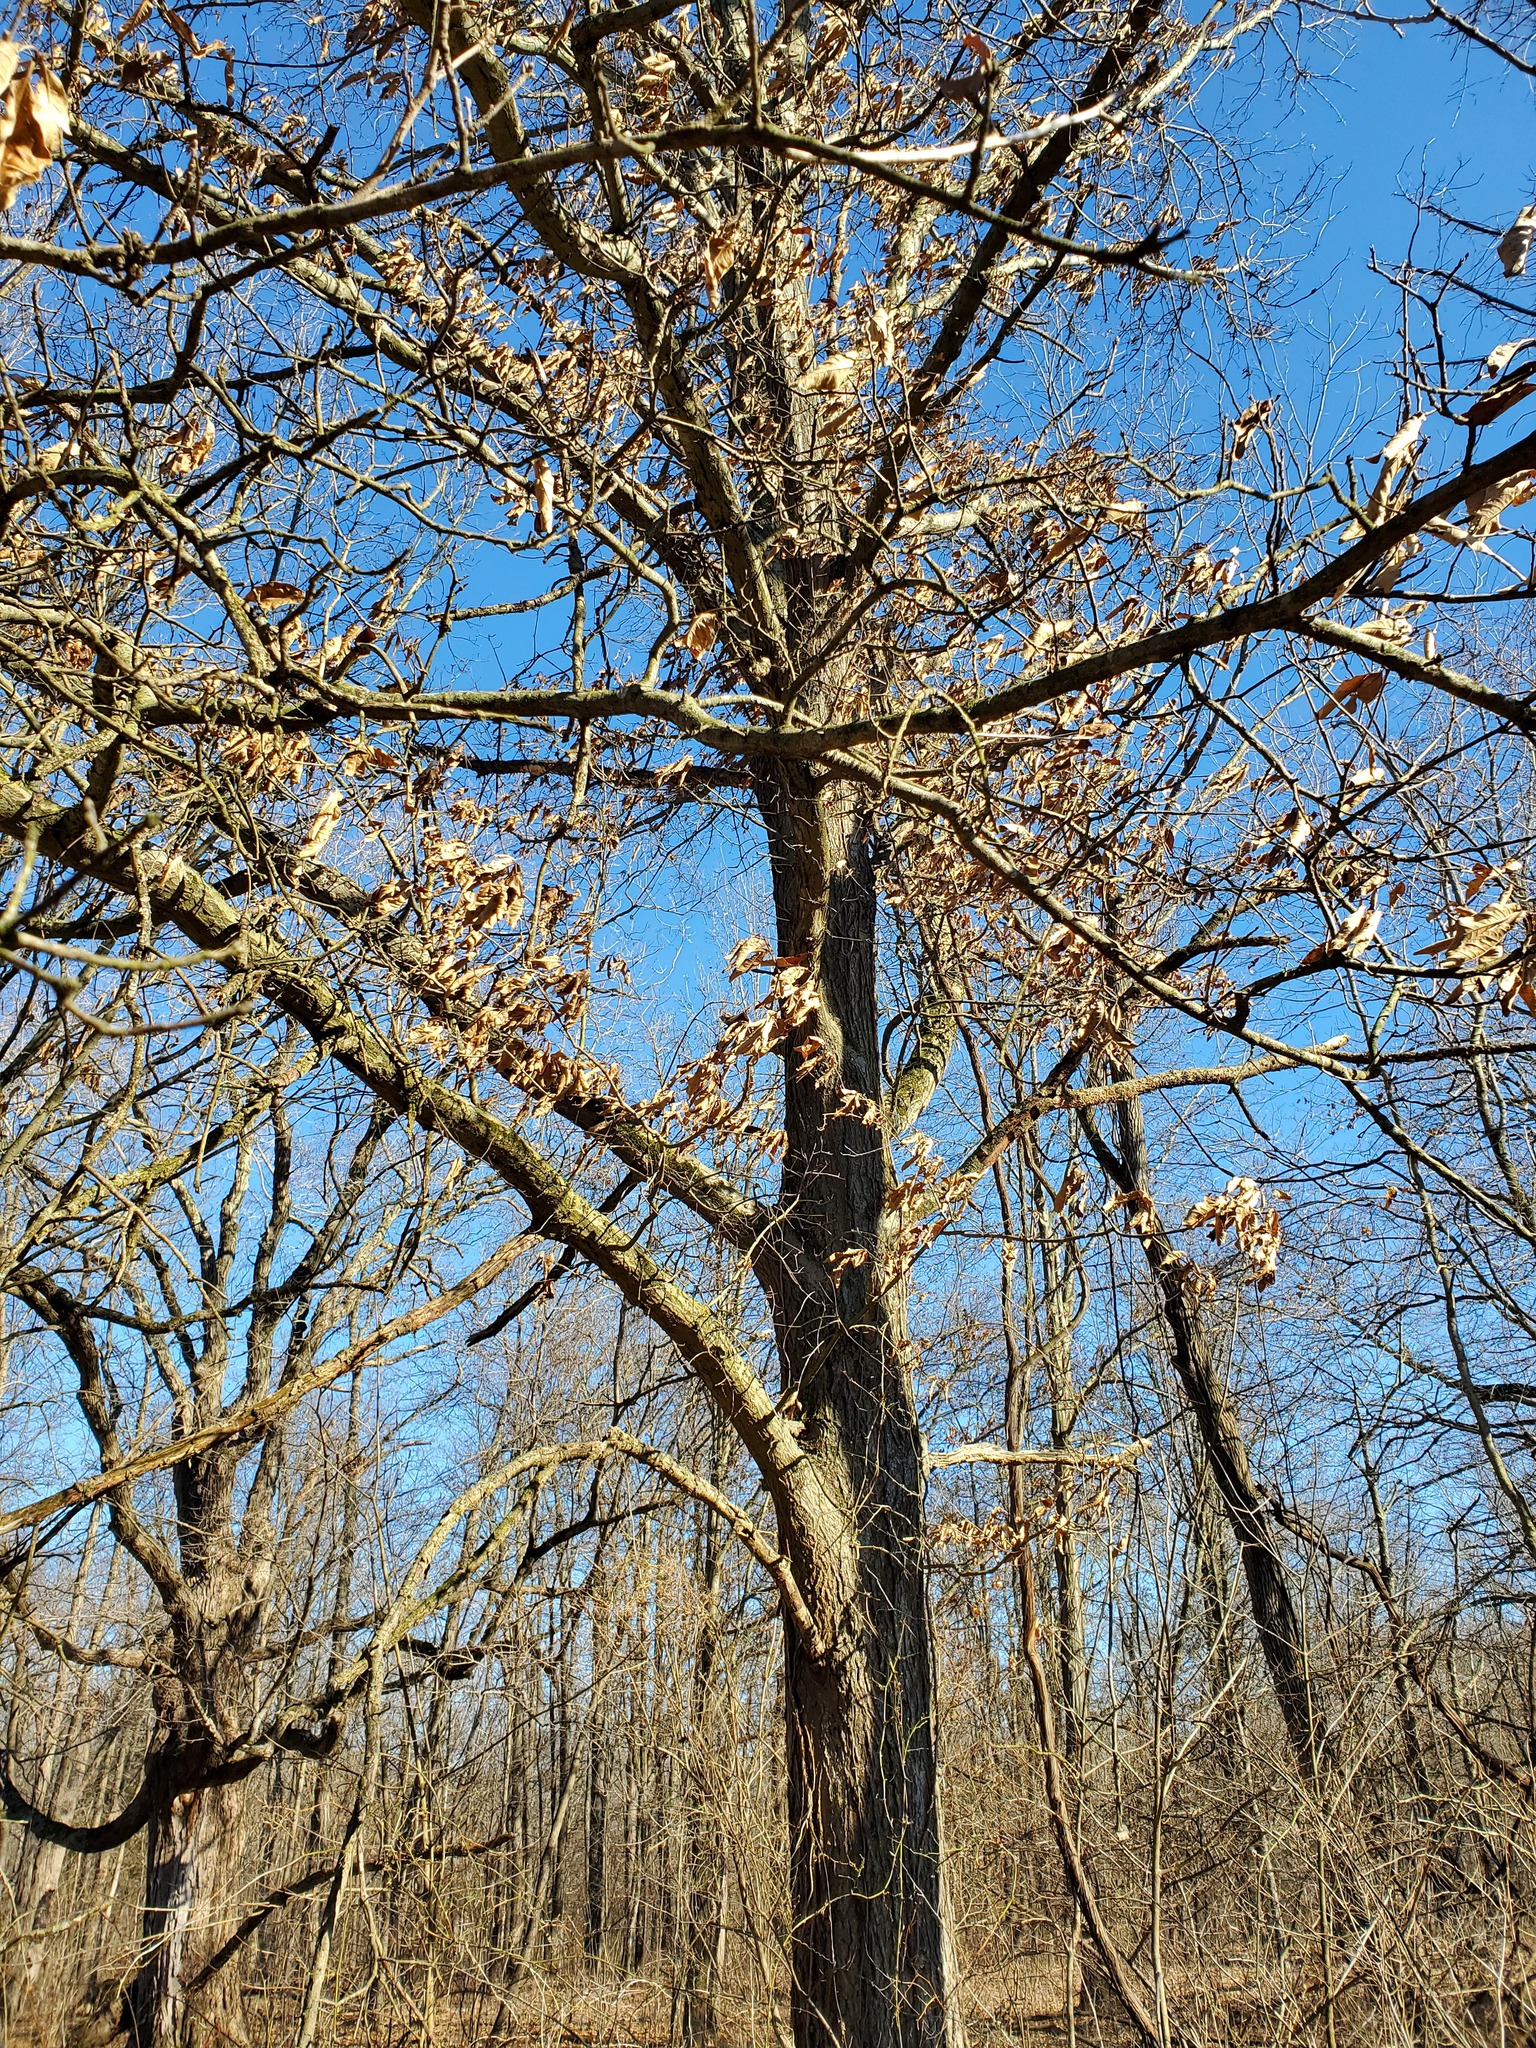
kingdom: Plantae
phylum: Tracheophyta
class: Magnoliopsida
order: Fagales
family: Fagaceae
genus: Quercus
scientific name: Quercus imbricaria
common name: Shingle oak
